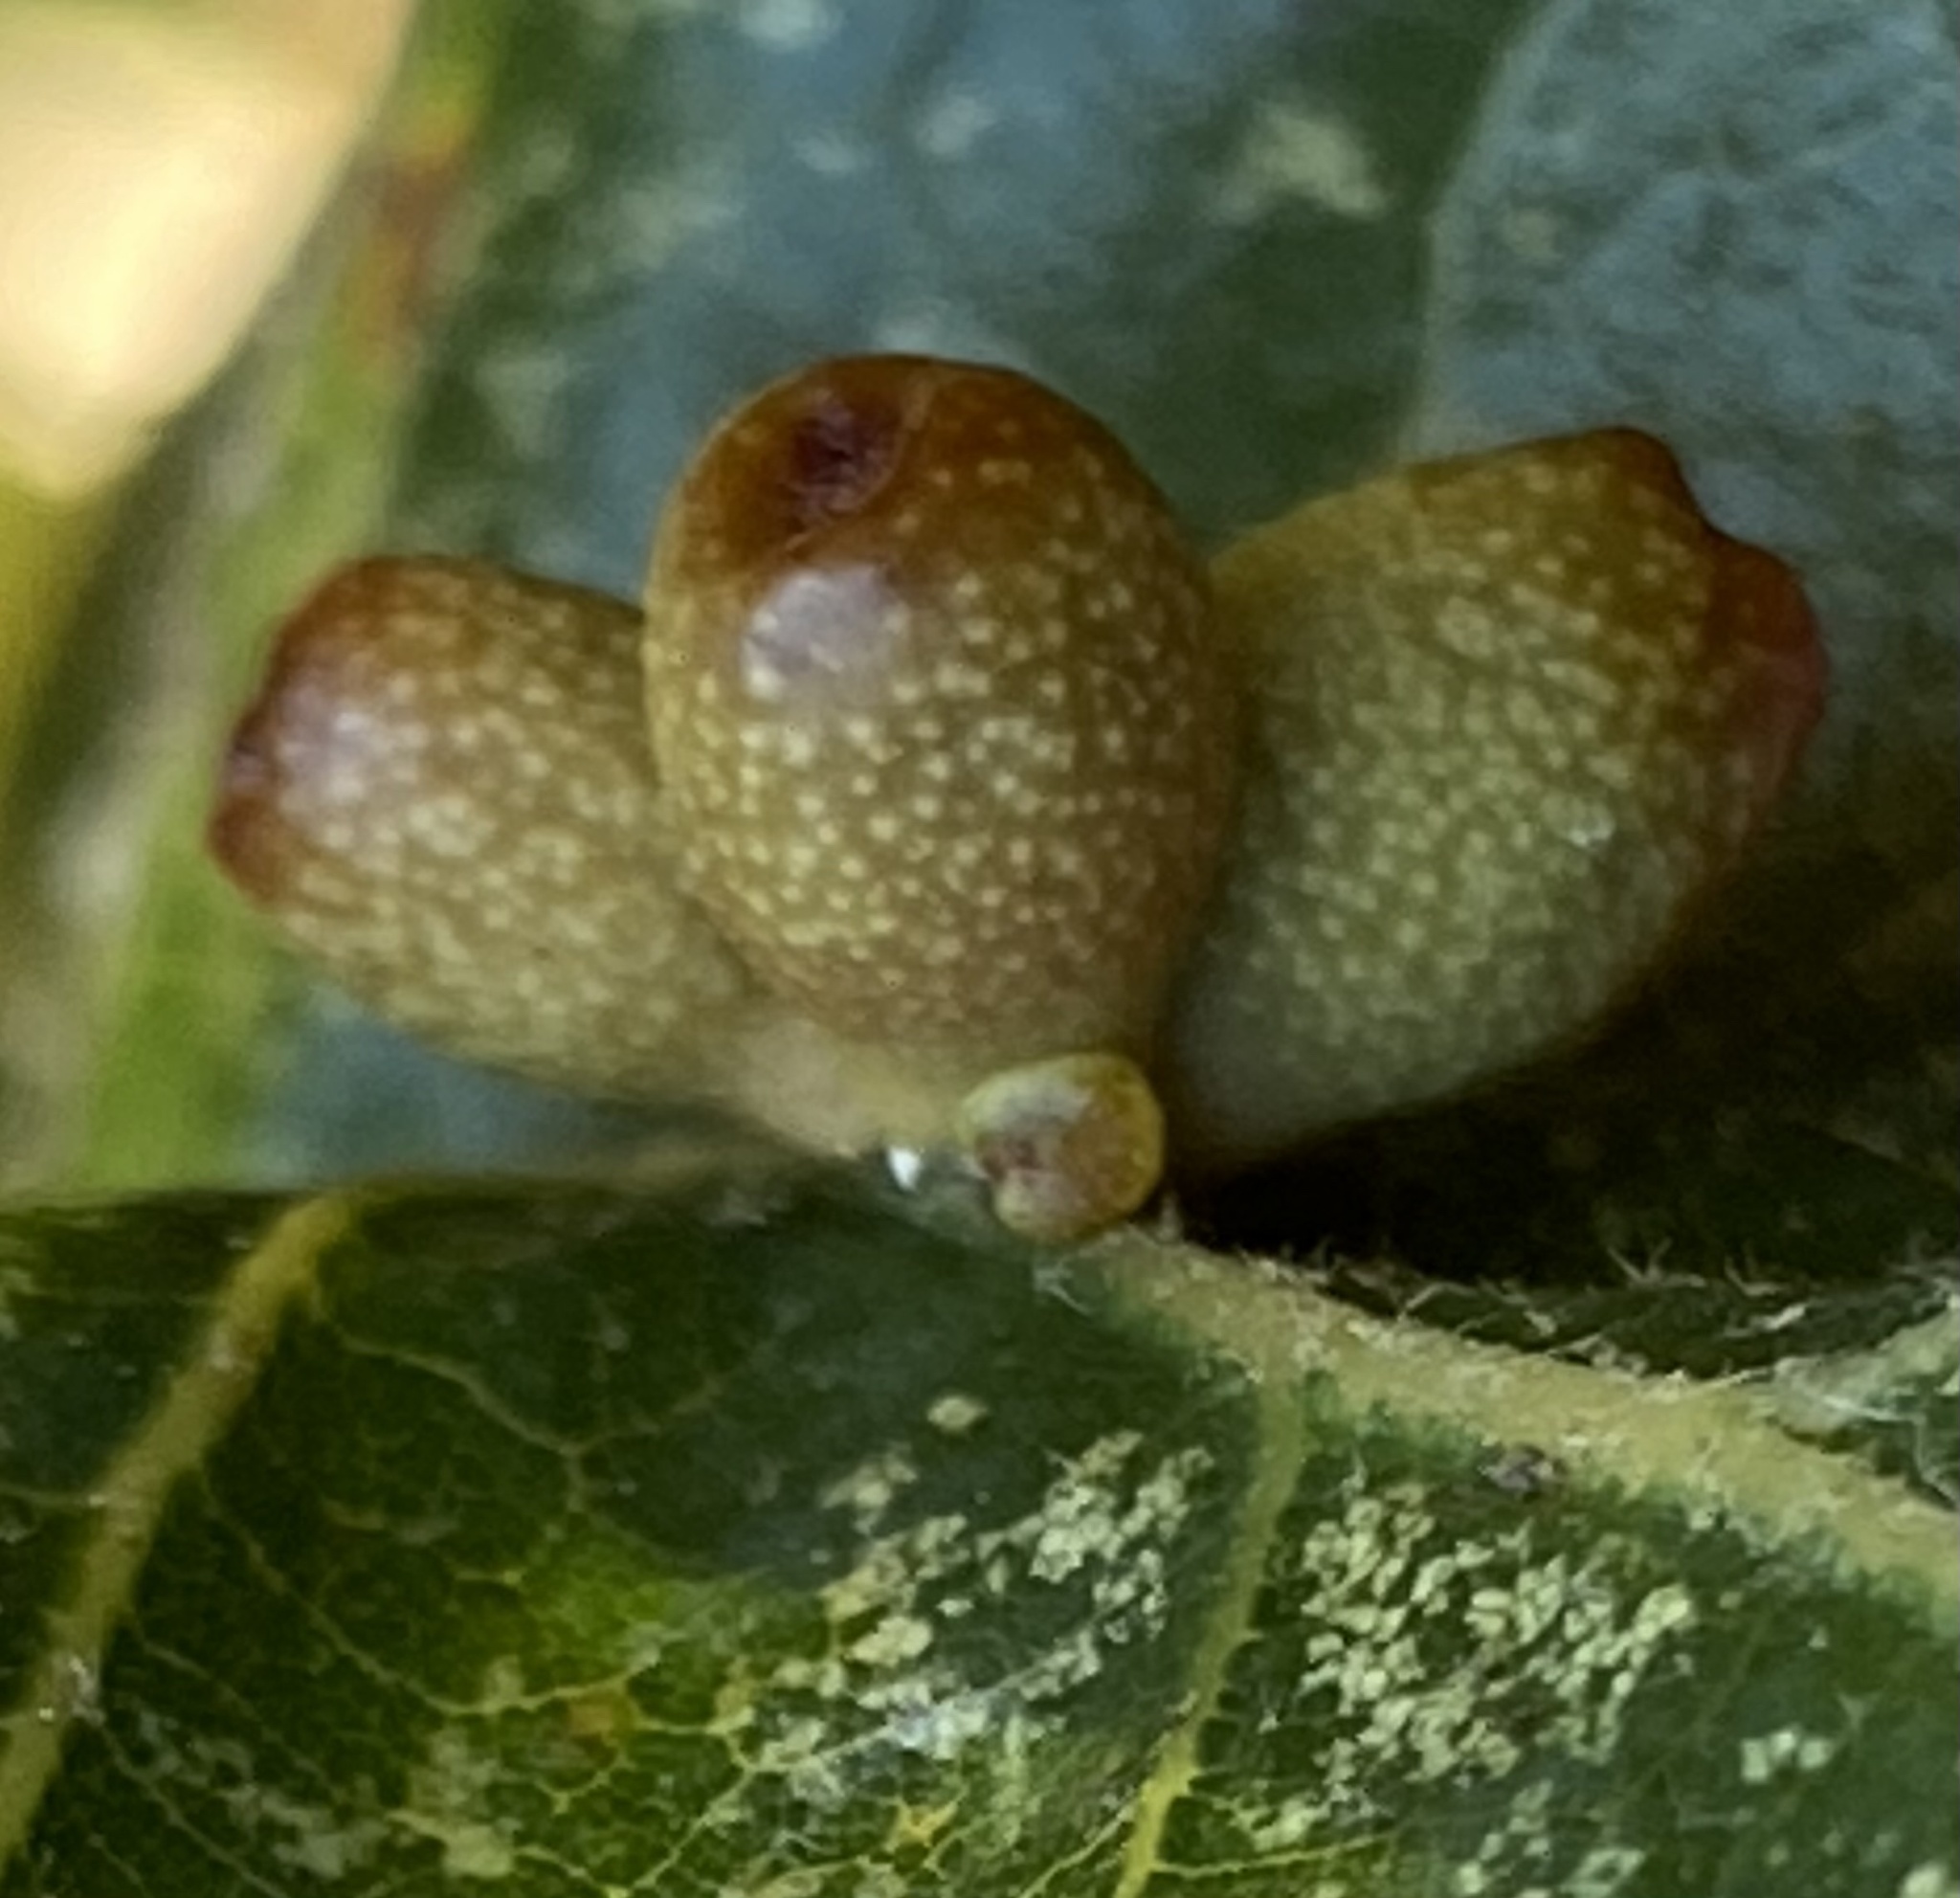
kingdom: Animalia
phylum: Arthropoda
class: Insecta
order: Hymenoptera
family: Cynipidae
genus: Andricus
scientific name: Andricus lustrans
